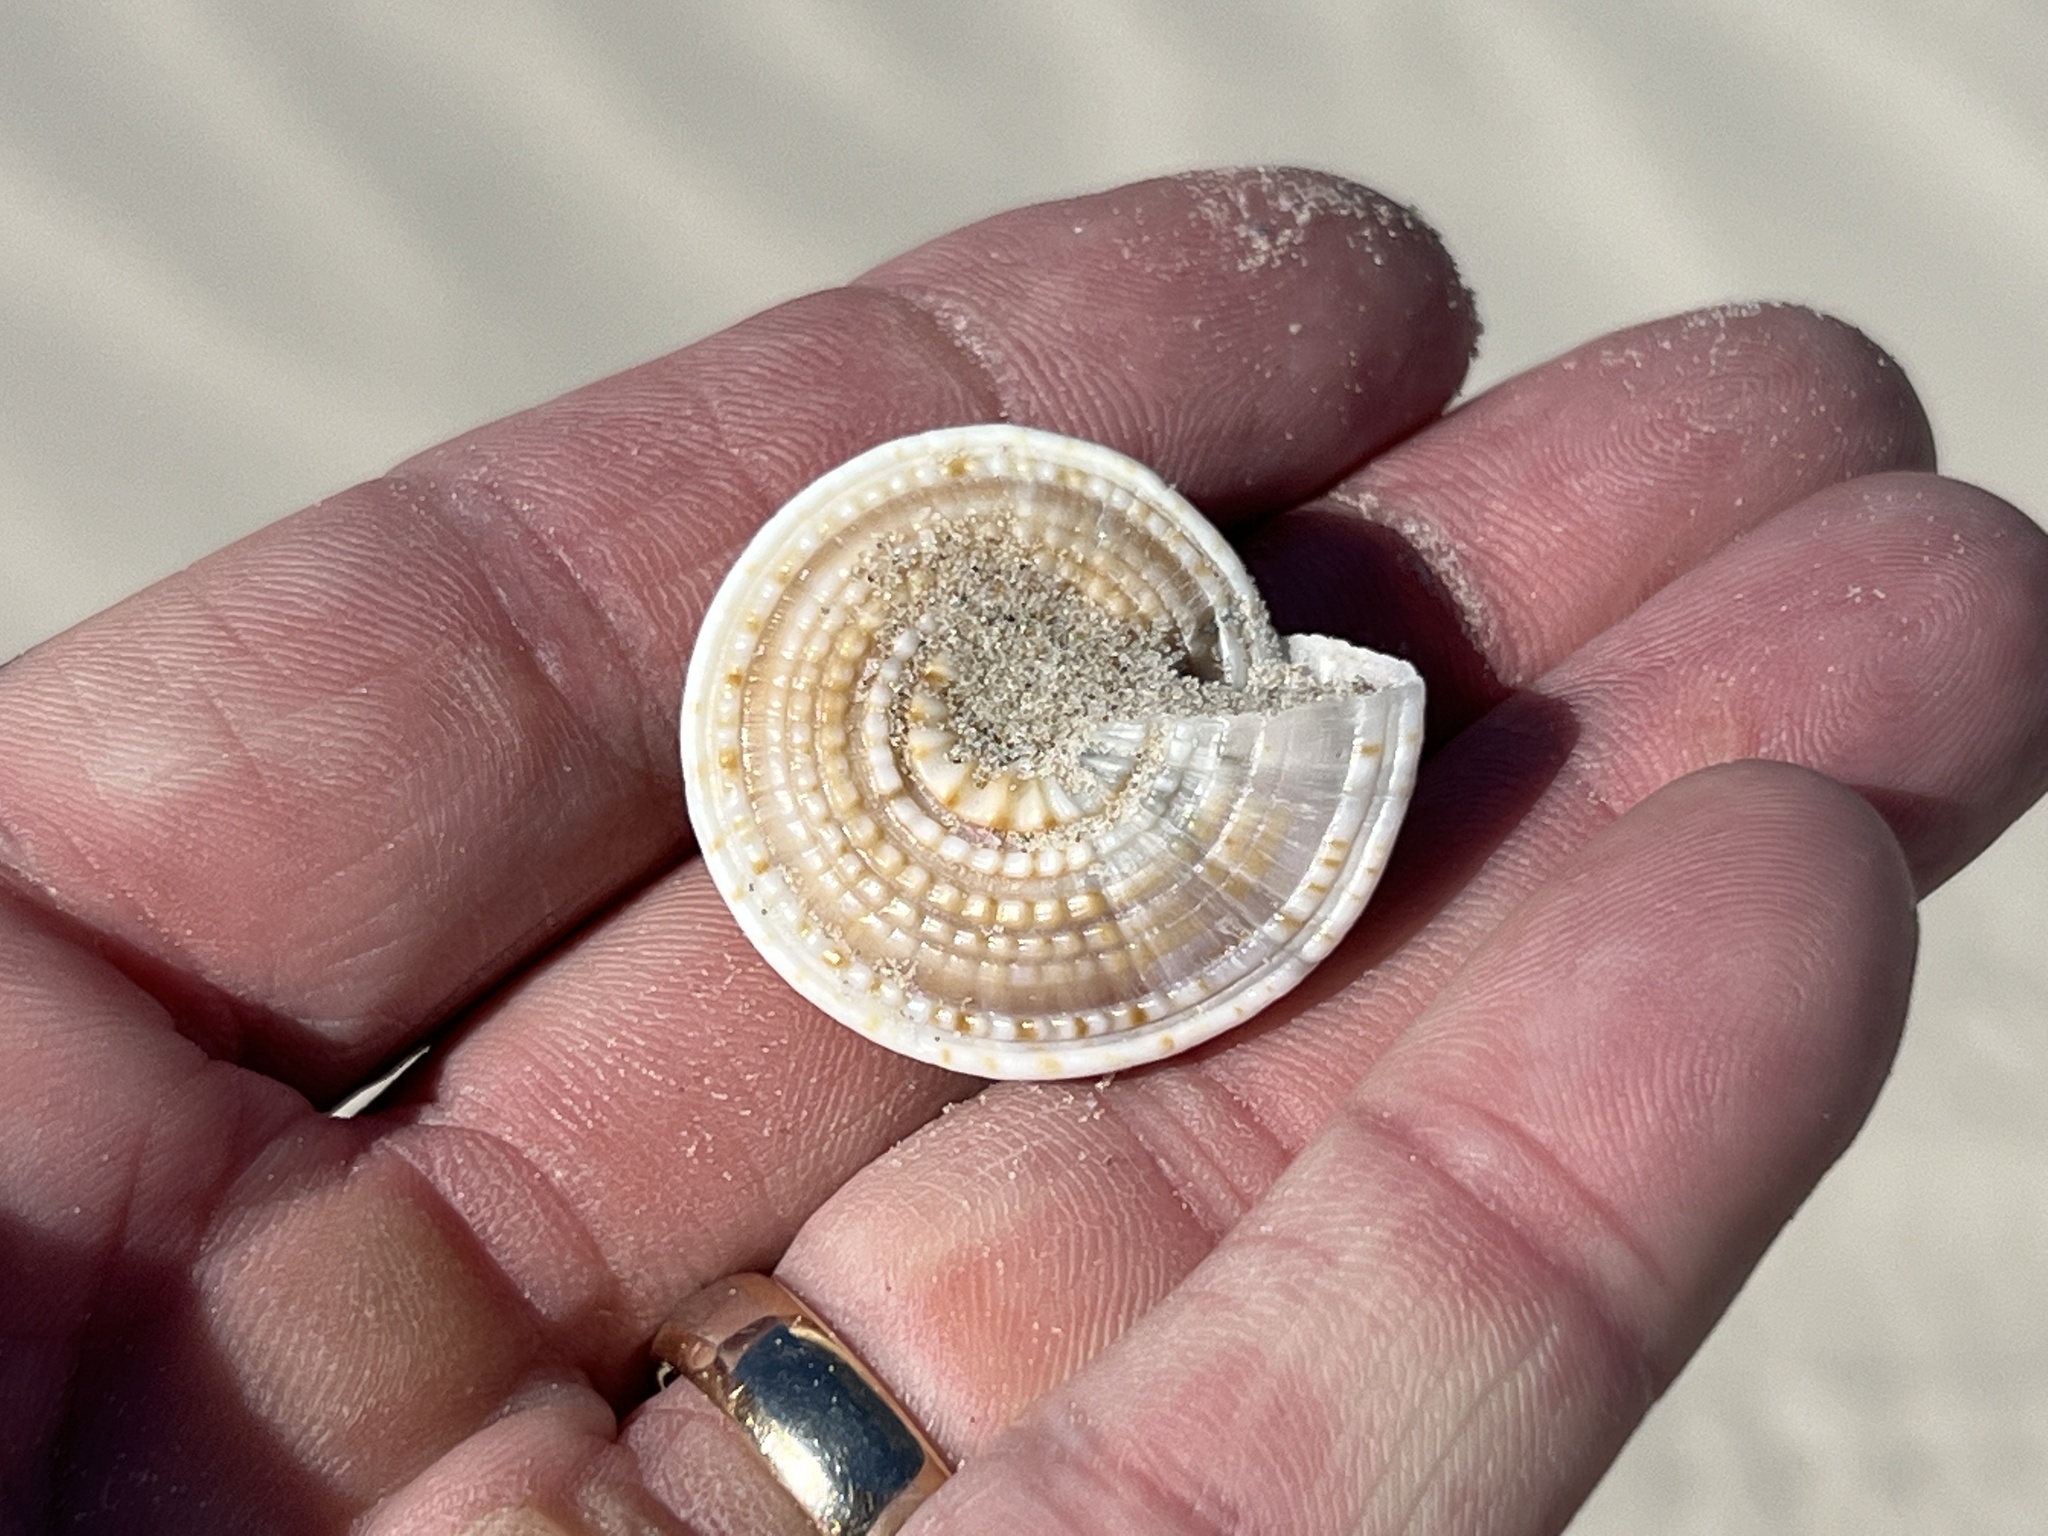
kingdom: Animalia
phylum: Mollusca
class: Gastropoda
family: Architectonicidae
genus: Architectonica
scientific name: Architectonica nobilis
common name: Common sundial
